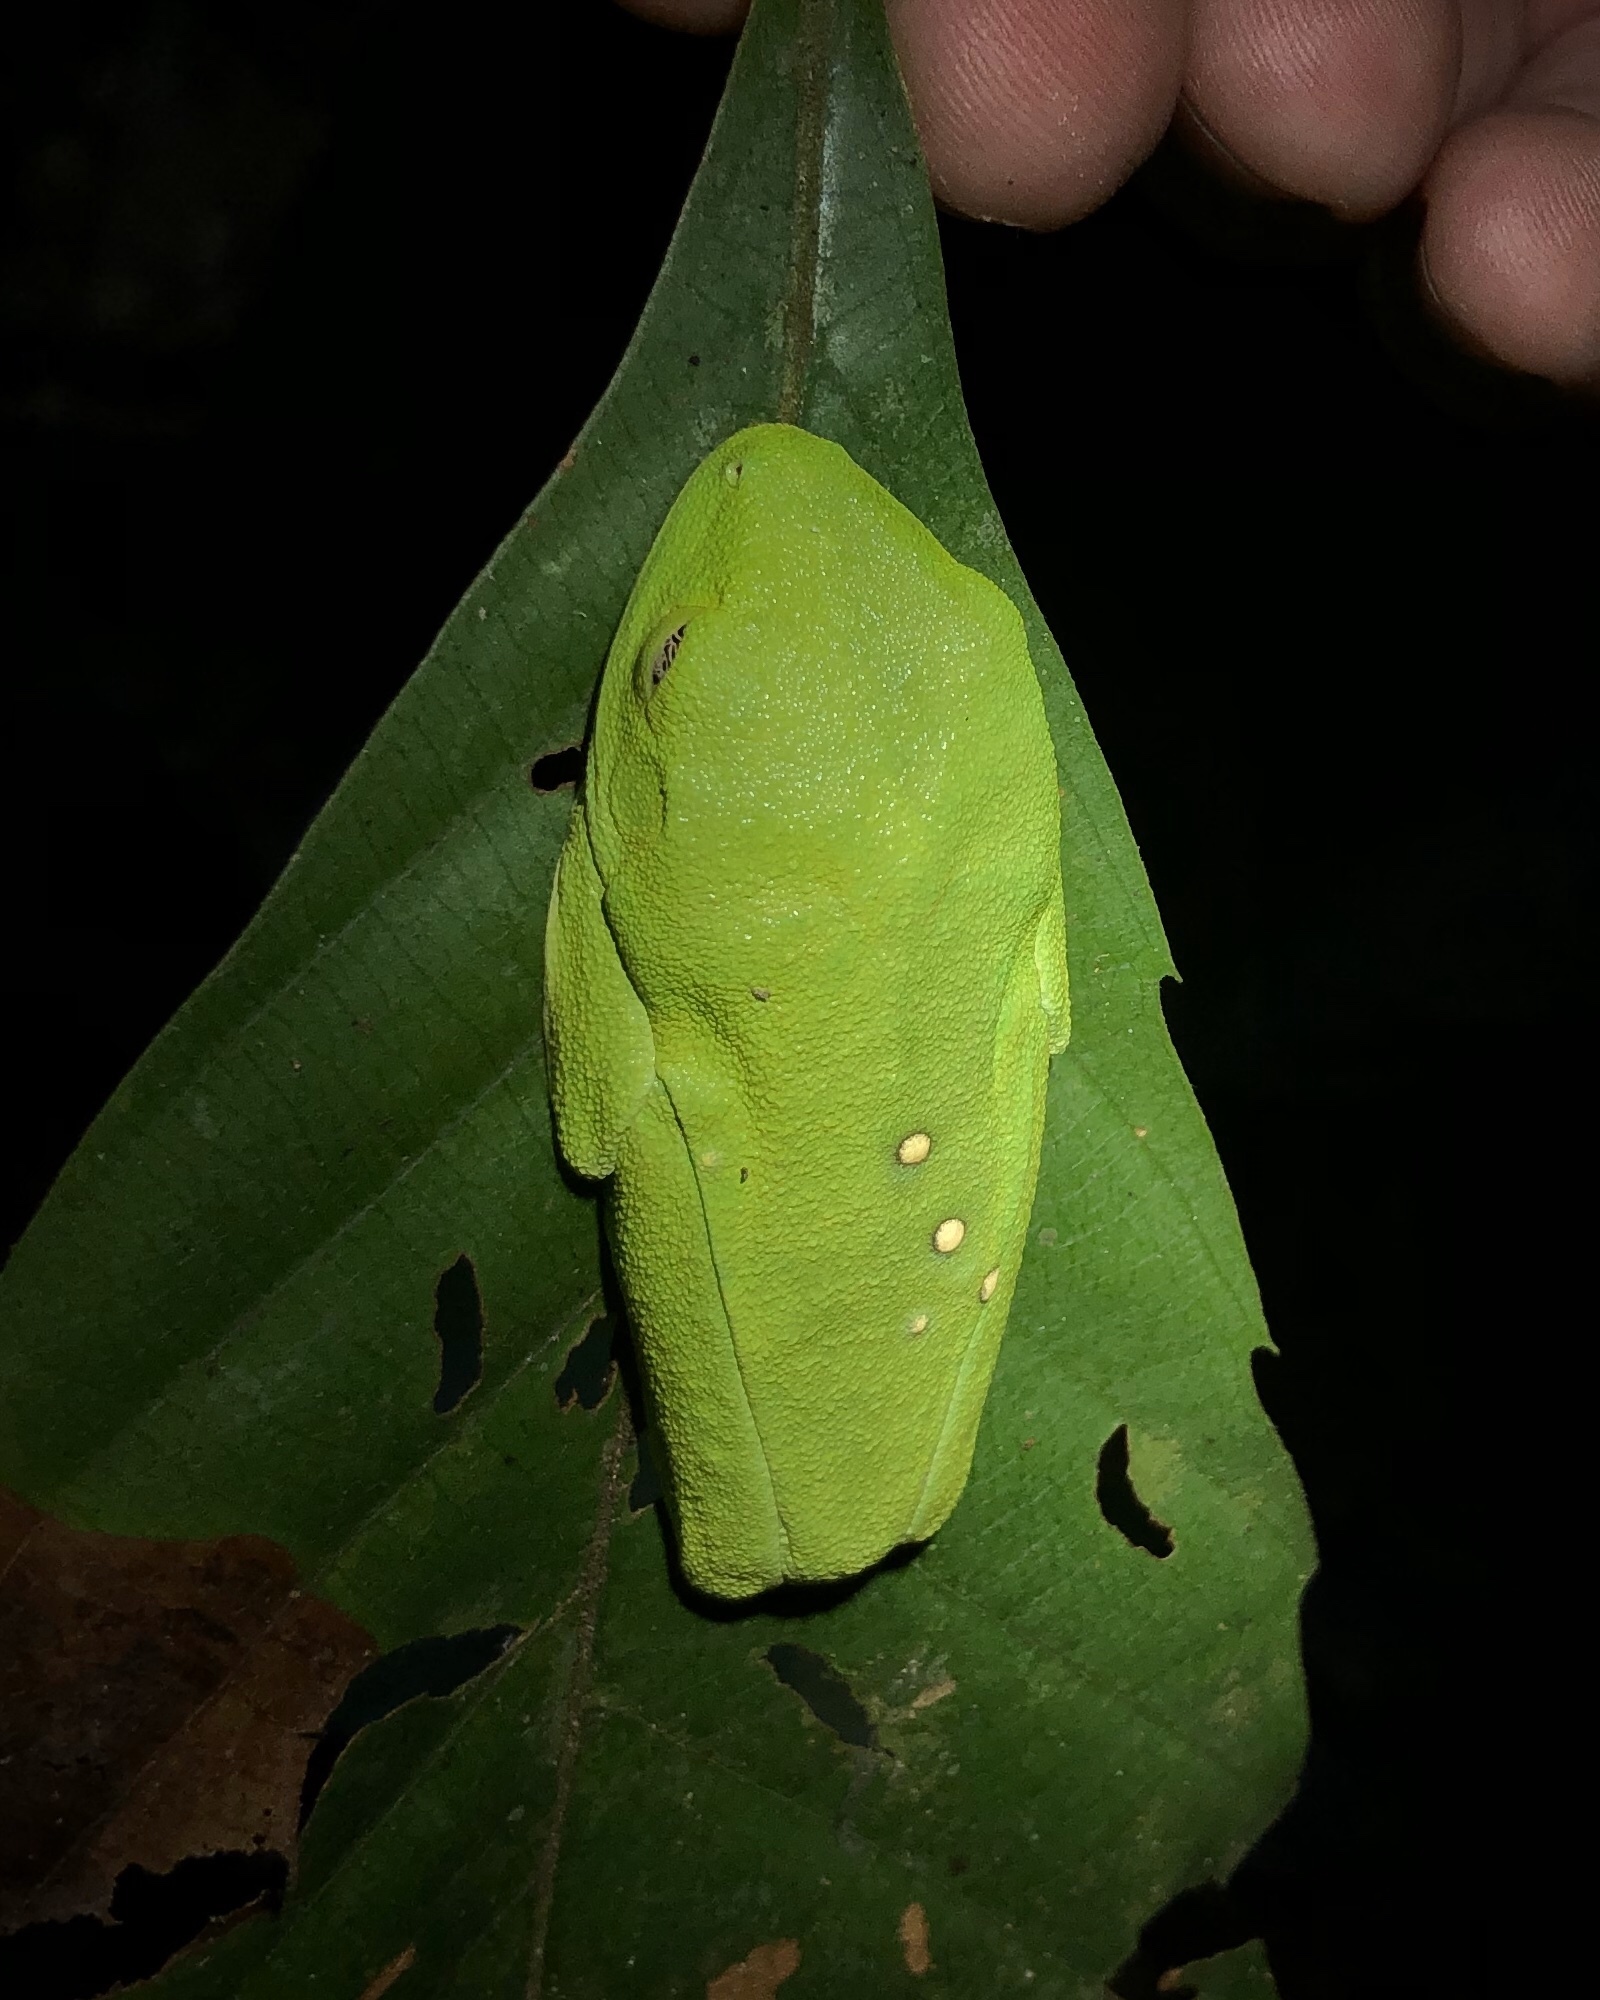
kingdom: Animalia
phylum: Chordata
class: Amphibia
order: Anura
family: Phyllomedusidae
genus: Agalychnis
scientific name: Agalychnis callidryas
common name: Red-eyed treefrog
